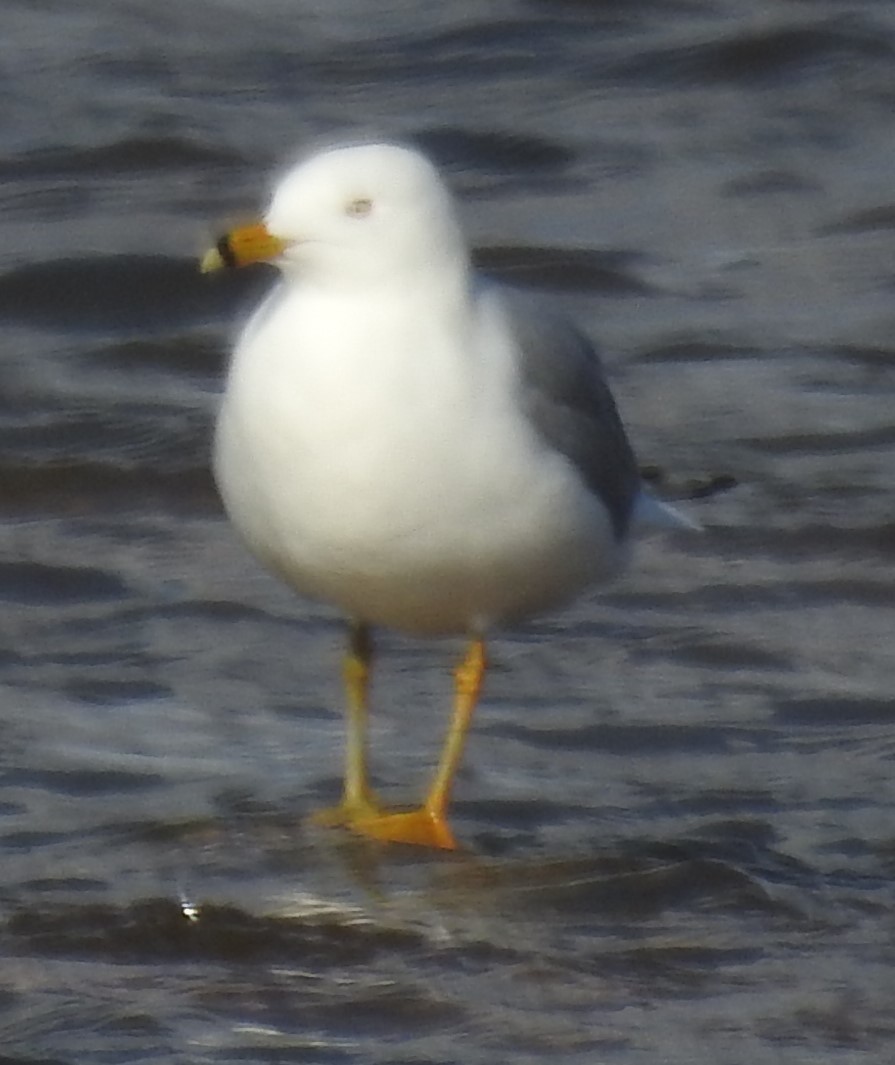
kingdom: Animalia
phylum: Chordata
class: Aves
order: Charadriiformes
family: Laridae
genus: Larus
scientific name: Larus delawarensis
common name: Ring-billed gull
